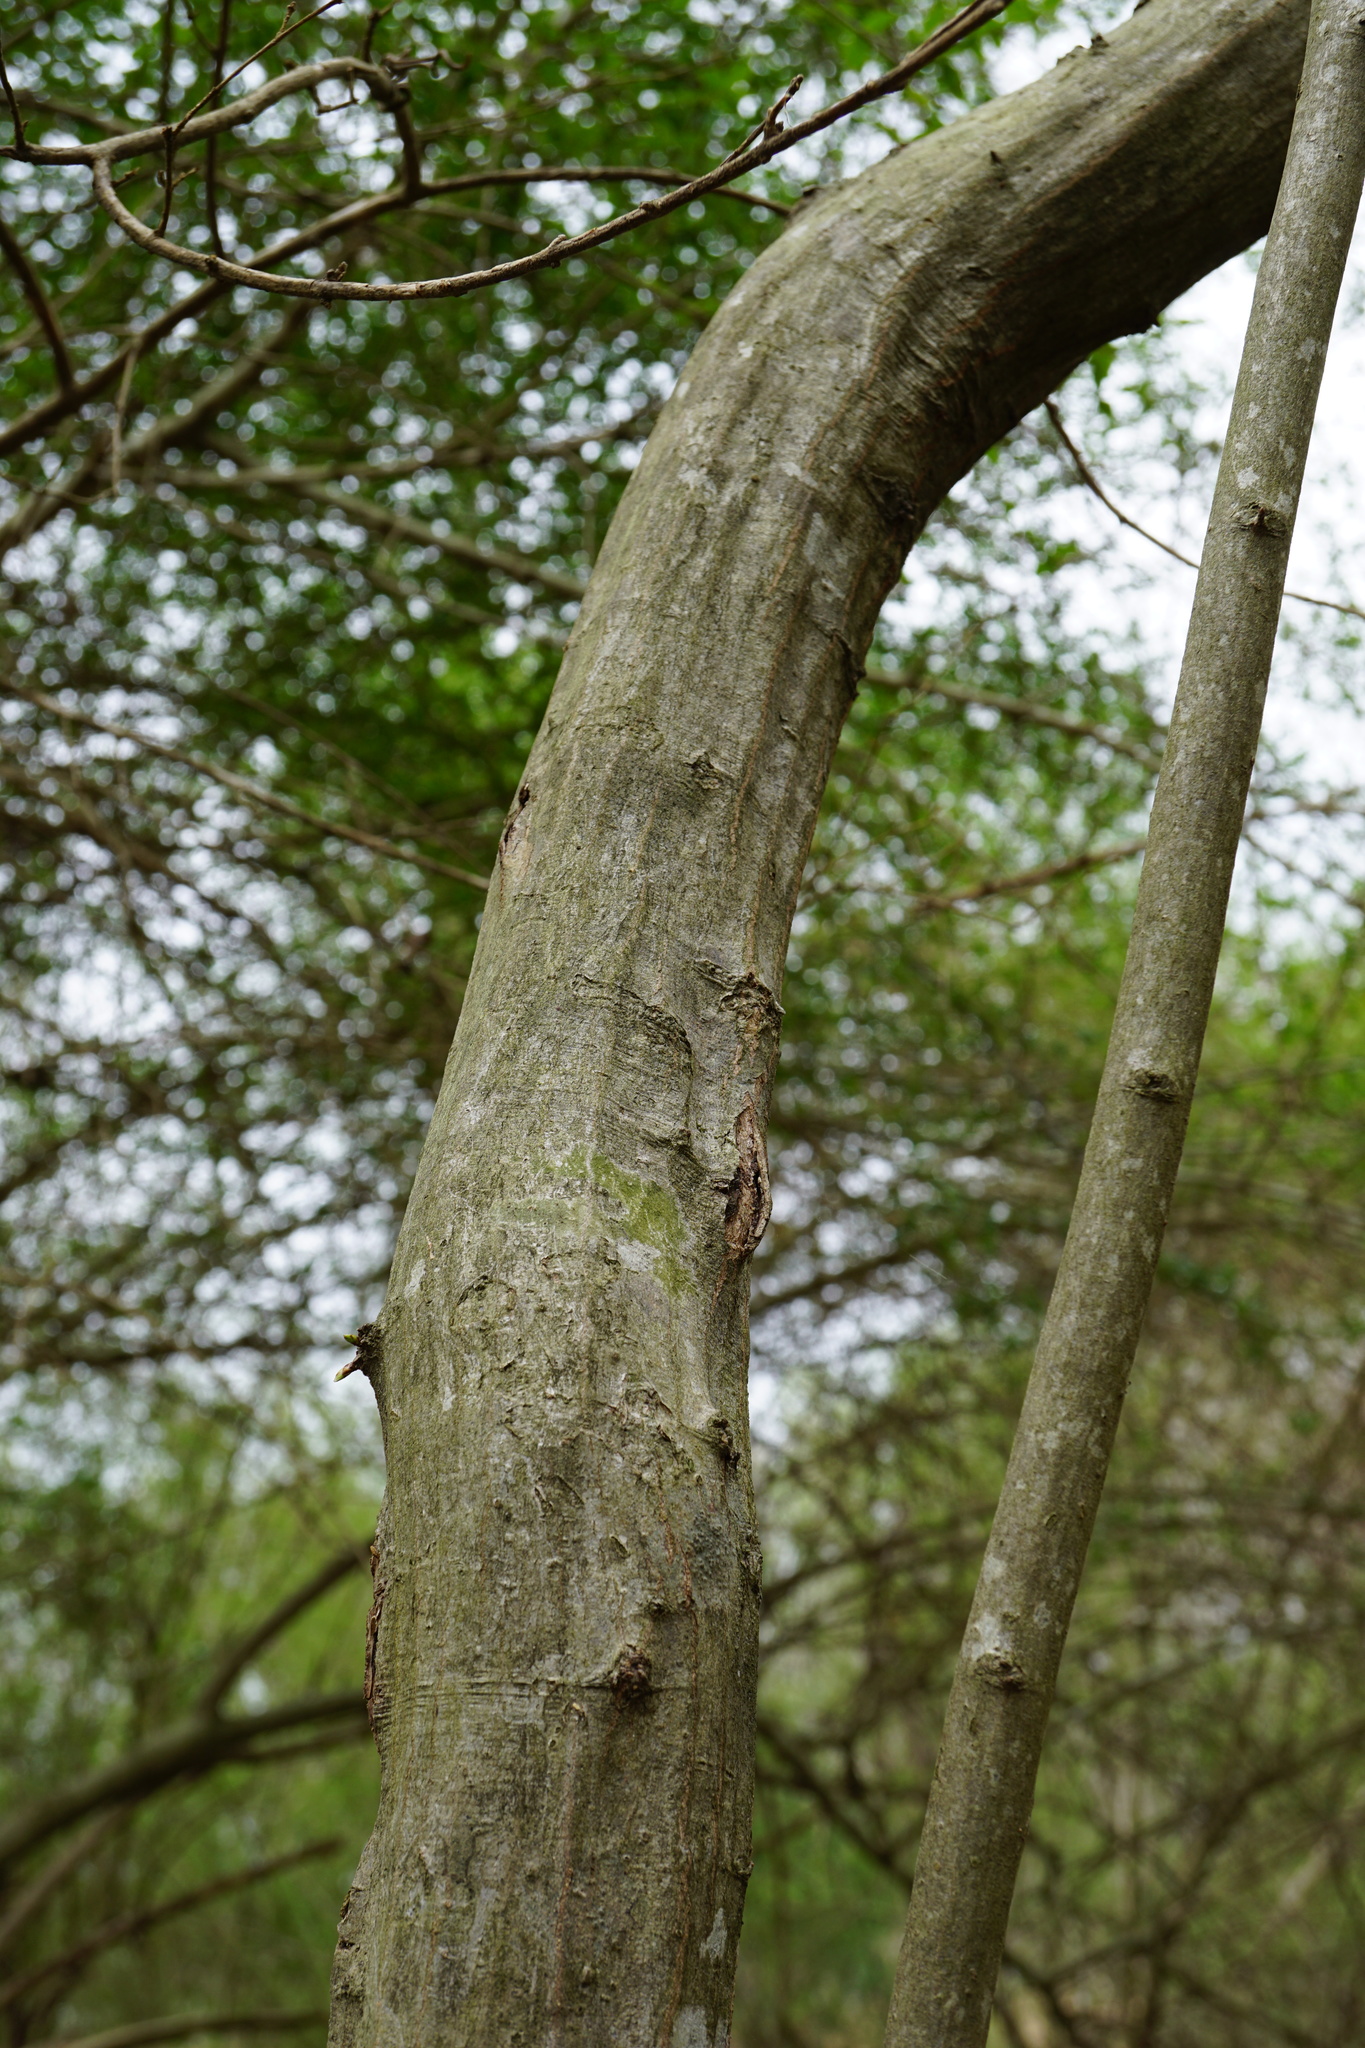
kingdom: Plantae
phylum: Tracheophyta
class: Magnoliopsida
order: Fagales
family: Betulaceae
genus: Carpinus
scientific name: Carpinus caroliniana
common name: American hornbeam
